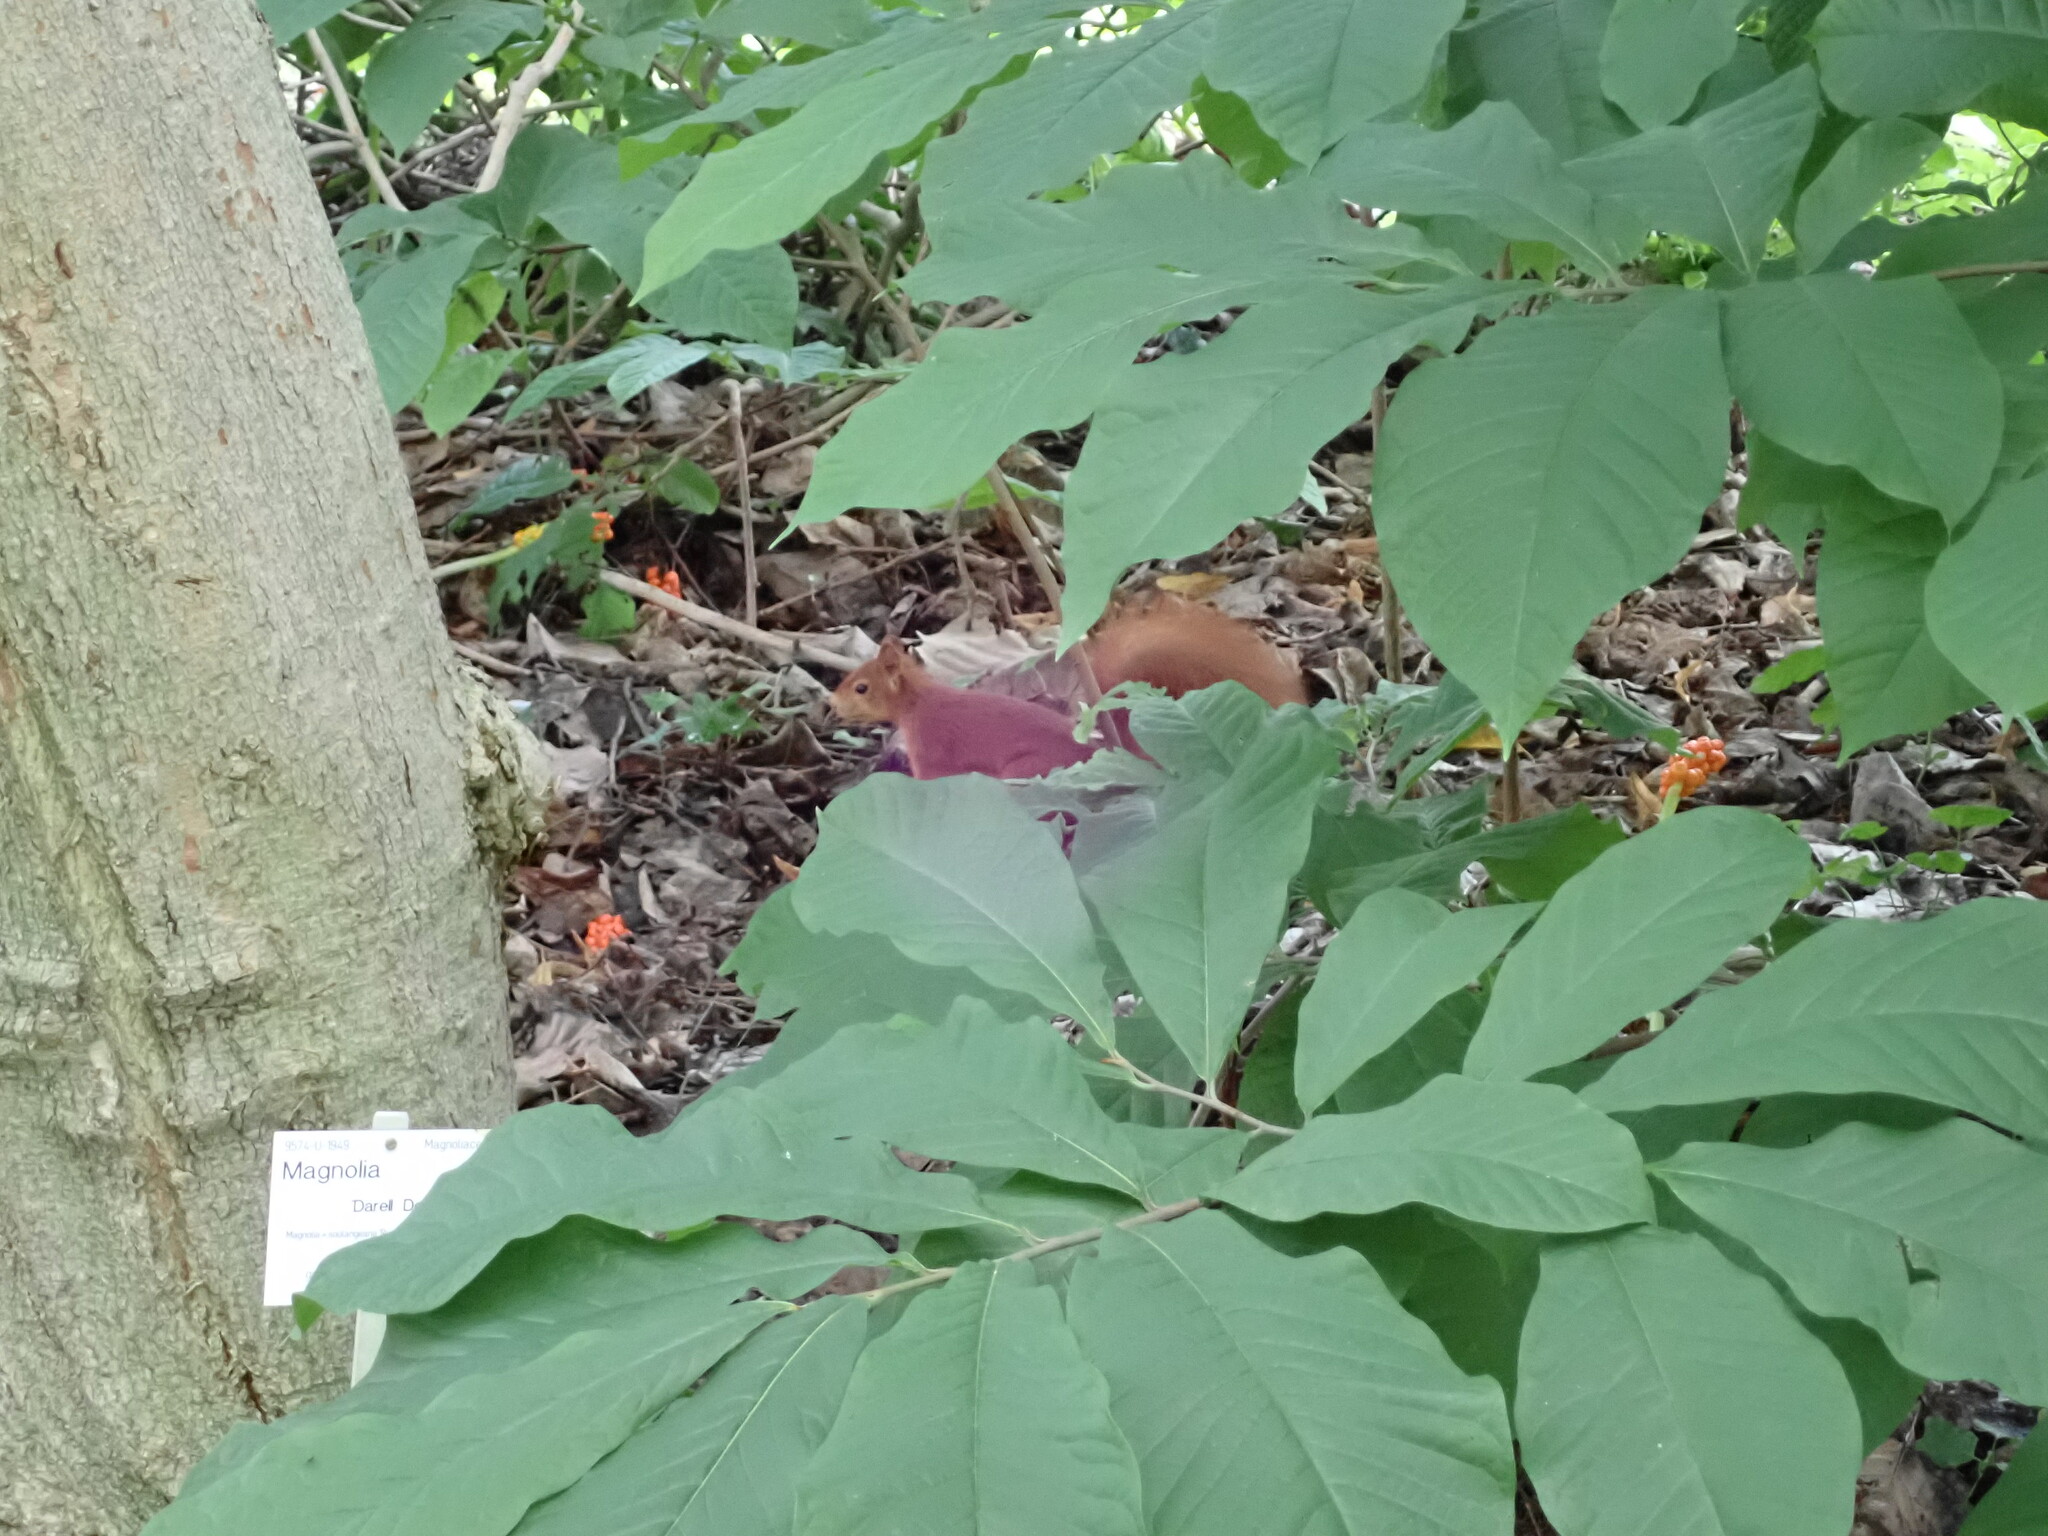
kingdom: Animalia
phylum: Chordata
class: Mammalia
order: Rodentia
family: Sciuridae
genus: Sciurus
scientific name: Sciurus vulgaris
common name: Eurasian red squirrel
